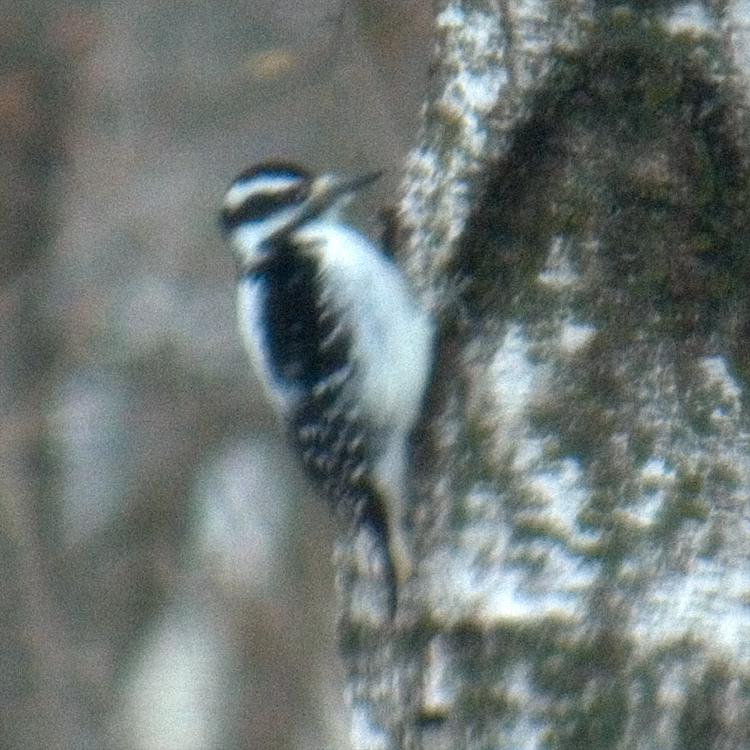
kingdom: Animalia
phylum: Chordata
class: Aves
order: Piciformes
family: Picidae
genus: Leuconotopicus
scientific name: Leuconotopicus villosus
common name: Hairy woodpecker
